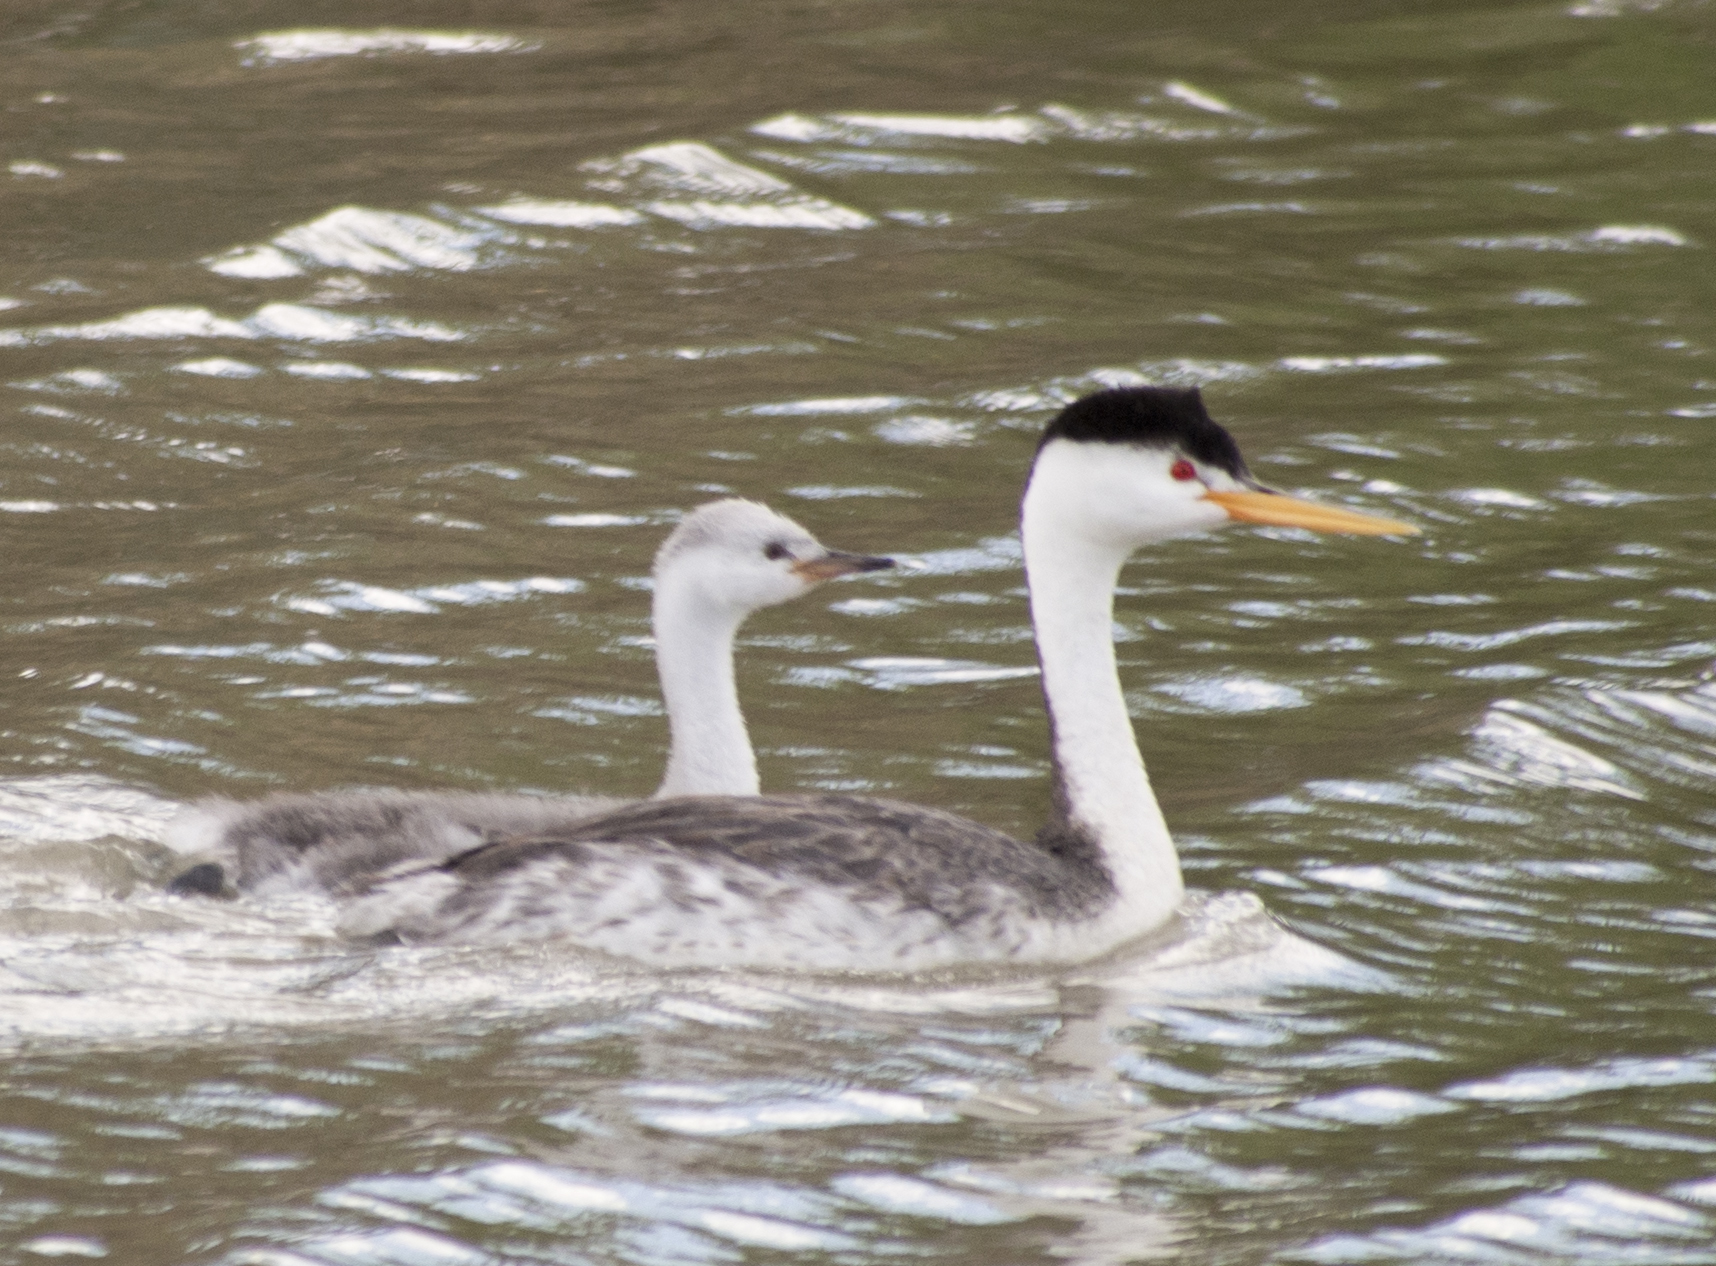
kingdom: Animalia
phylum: Chordata
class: Aves
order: Podicipediformes
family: Podicipedidae
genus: Aechmophorus
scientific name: Aechmophorus clarkii
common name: Clark's grebe
